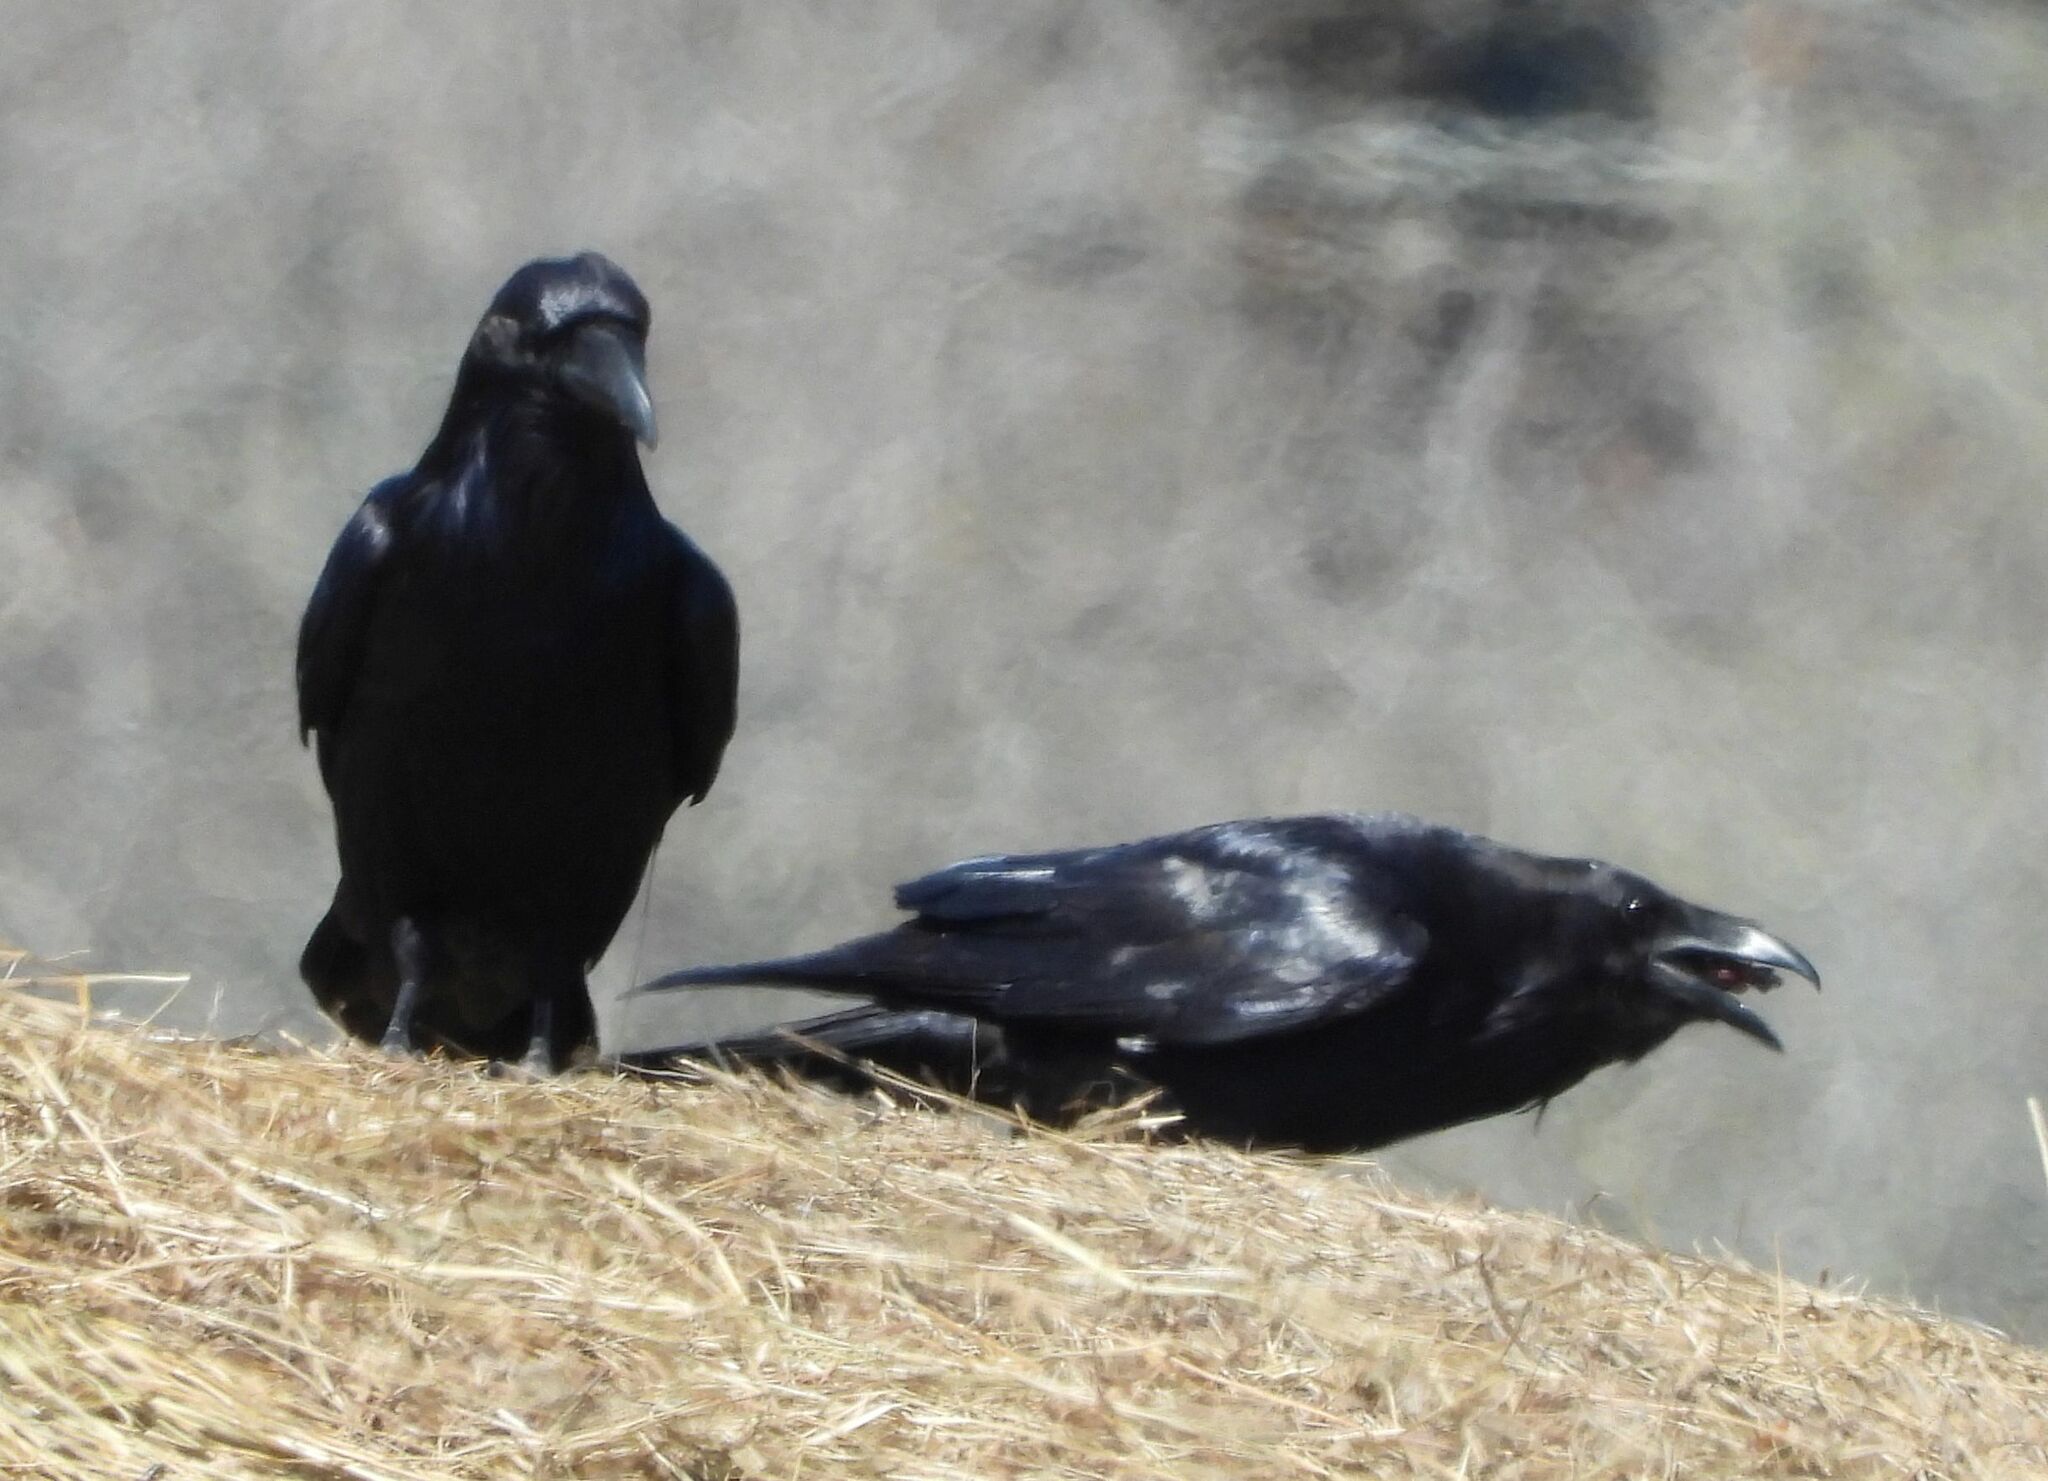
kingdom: Animalia
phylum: Chordata
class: Aves
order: Passeriformes
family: Corvidae
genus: Corvus
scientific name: Corvus corax
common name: Common raven
